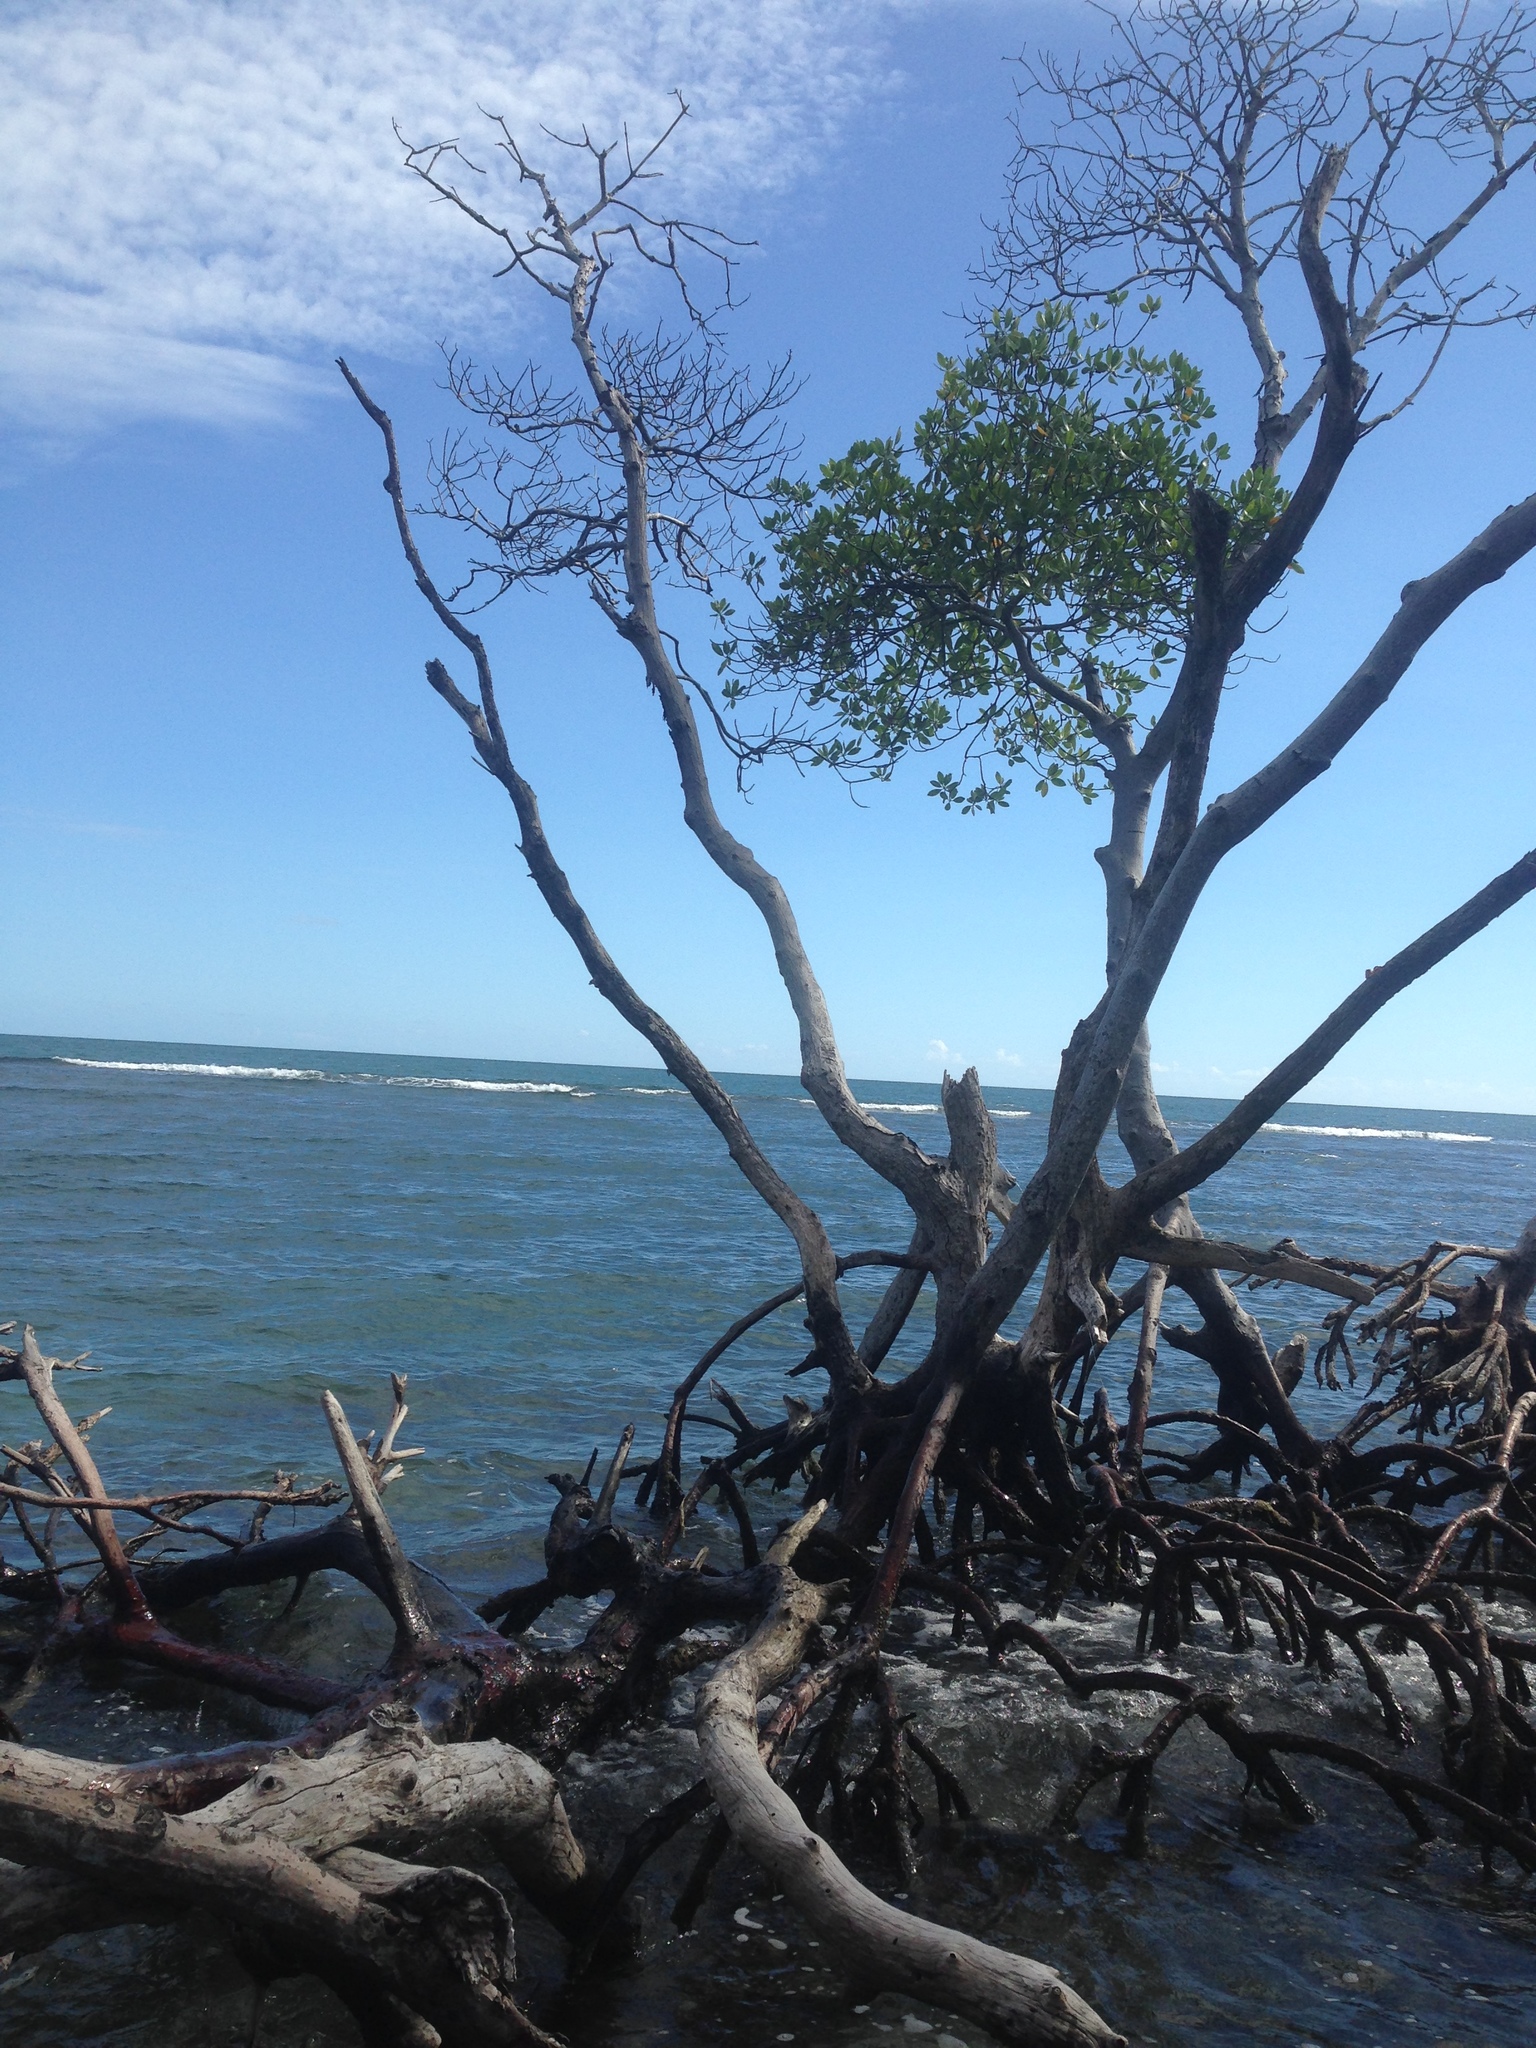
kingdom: Plantae
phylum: Tracheophyta
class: Magnoliopsida
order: Malpighiales
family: Rhizophoraceae
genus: Rhizophora
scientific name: Rhizophora mangle
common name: Red mangrove
